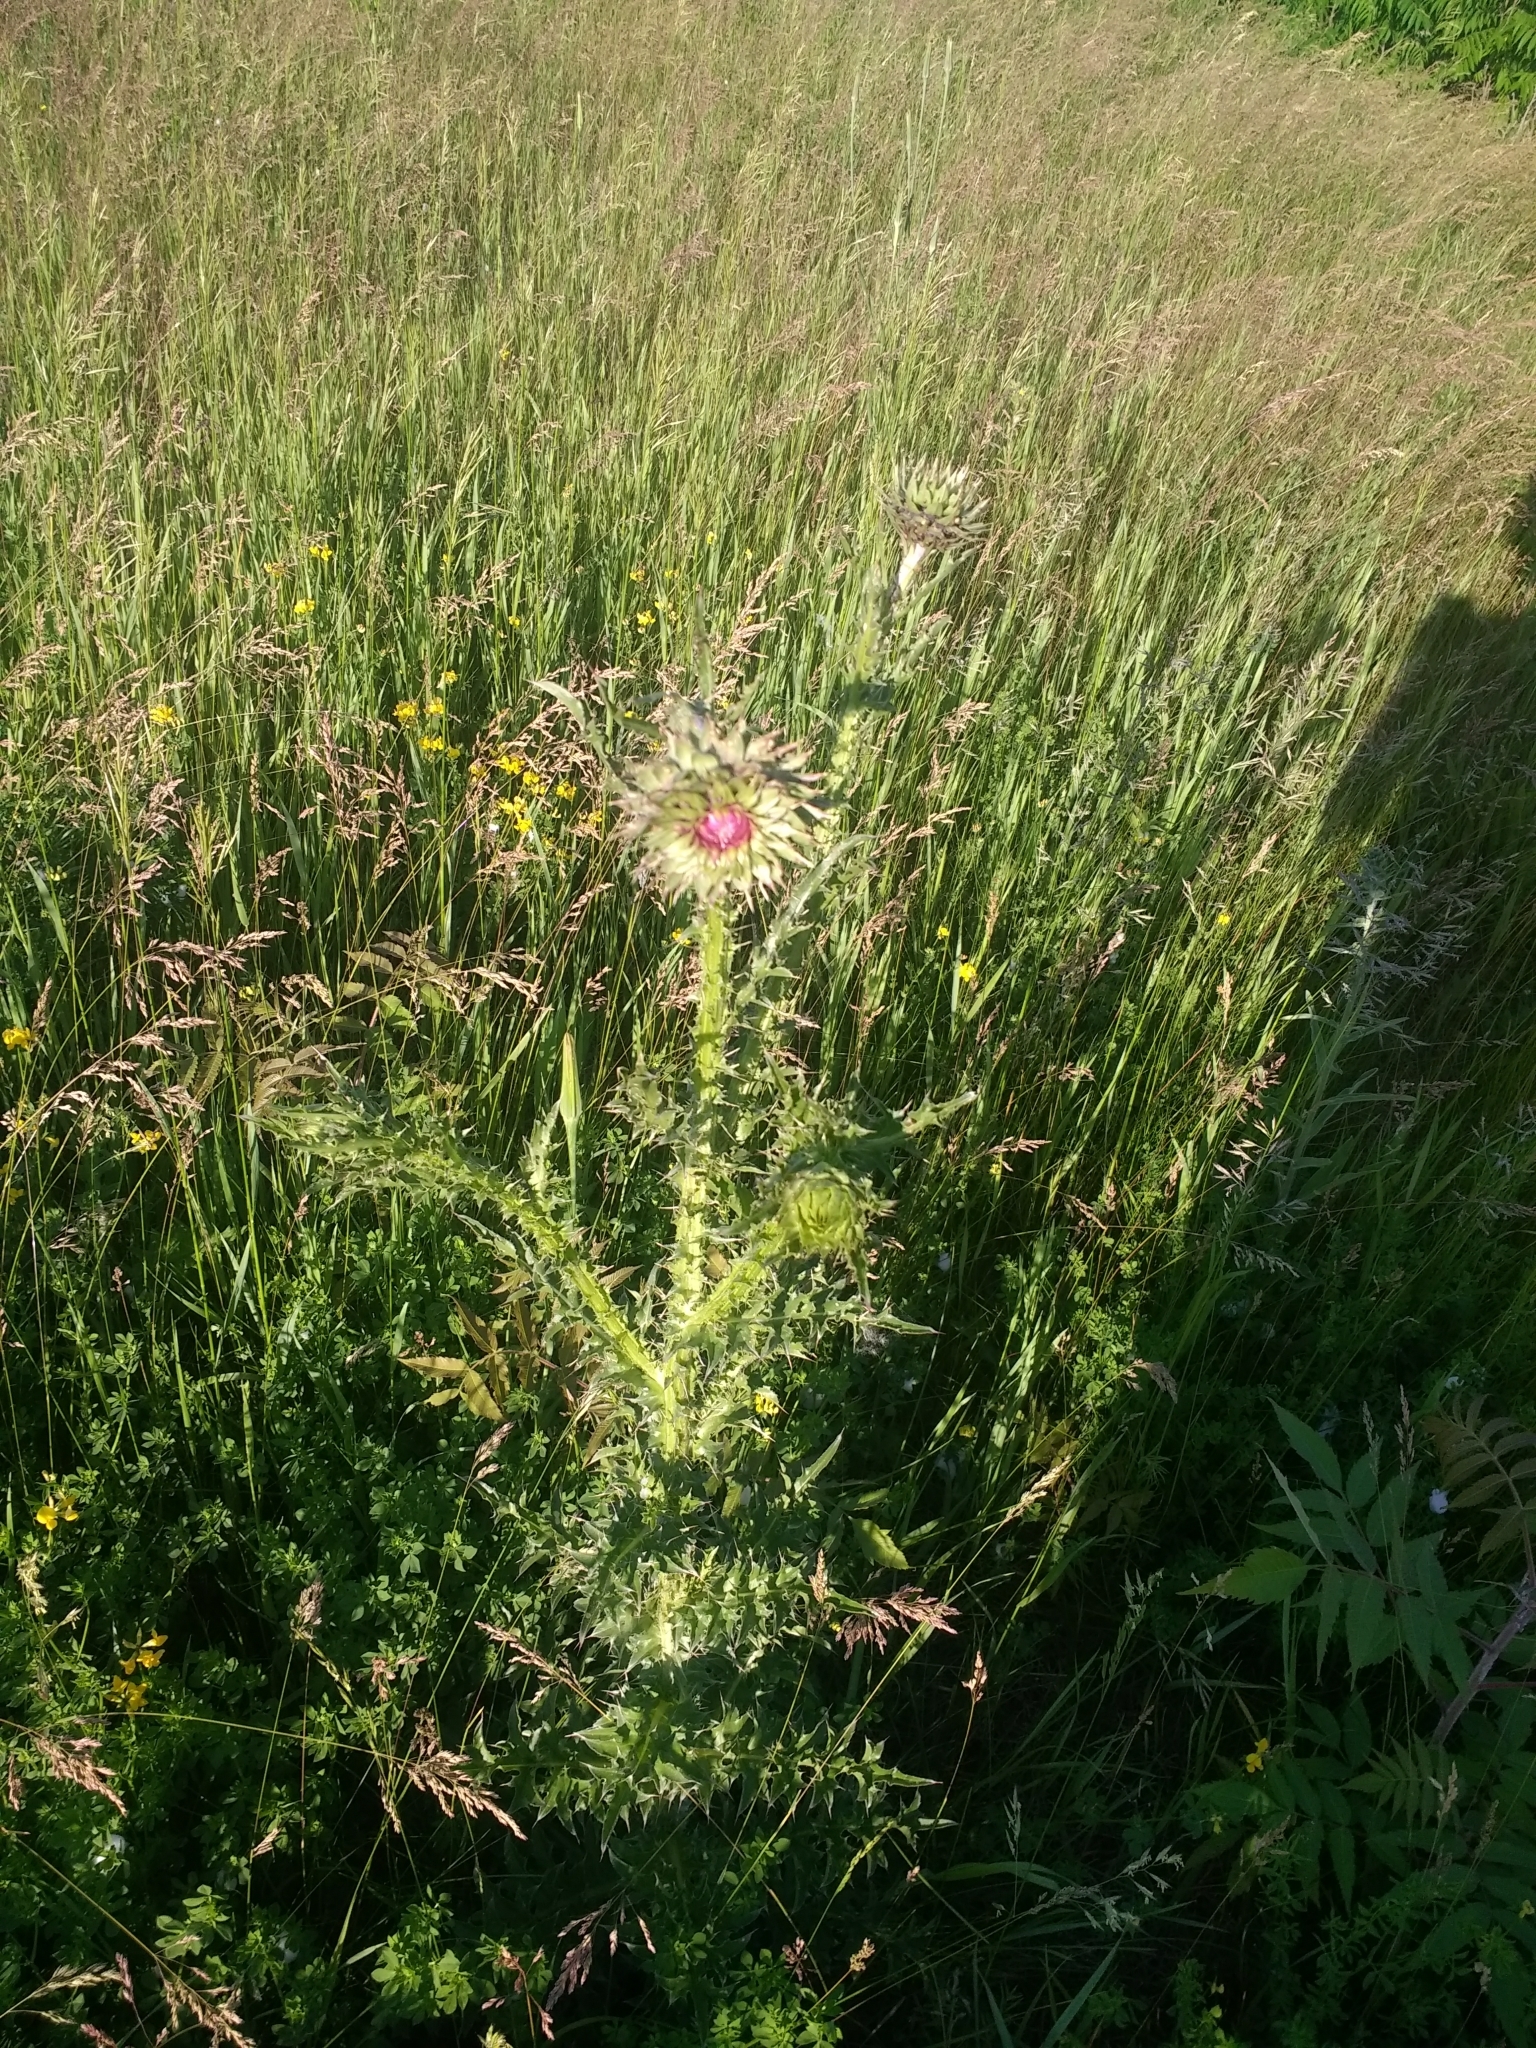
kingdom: Plantae
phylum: Tracheophyta
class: Magnoliopsida
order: Asterales
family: Asteraceae
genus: Carduus
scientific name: Carduus nutans
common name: Musk thistle
